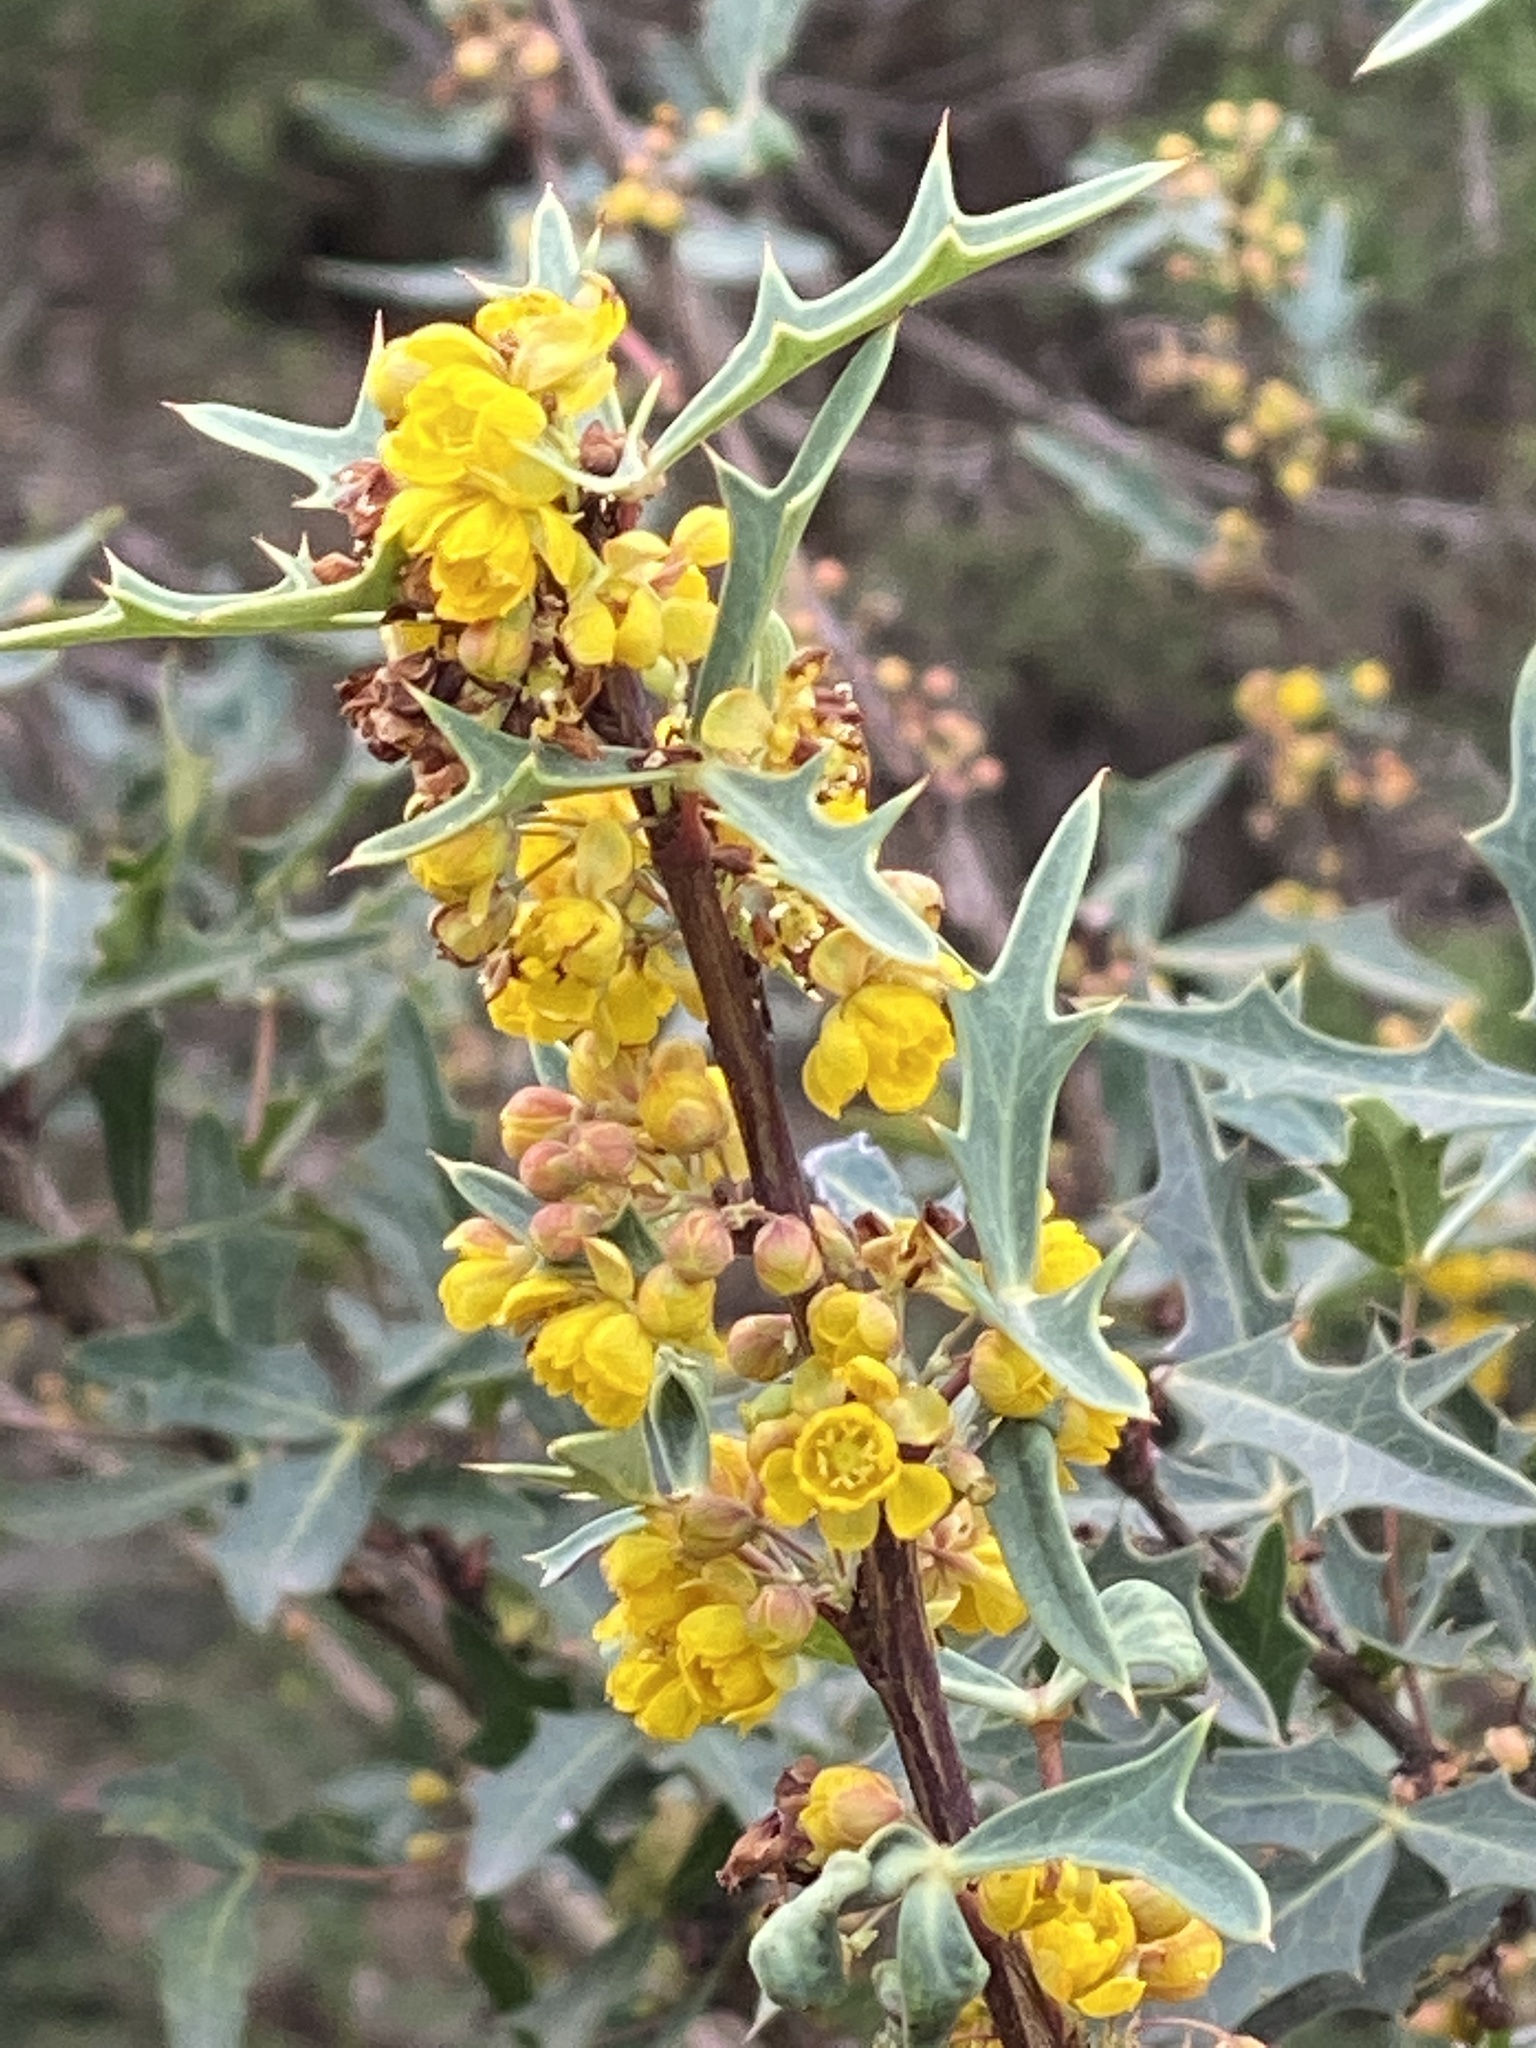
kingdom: Plantae
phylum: Tracheophyta
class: Magnoliopsida
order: Ranunculales
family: Berberidaceae
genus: Alloberberis
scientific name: Alloberberis trifoliolata
